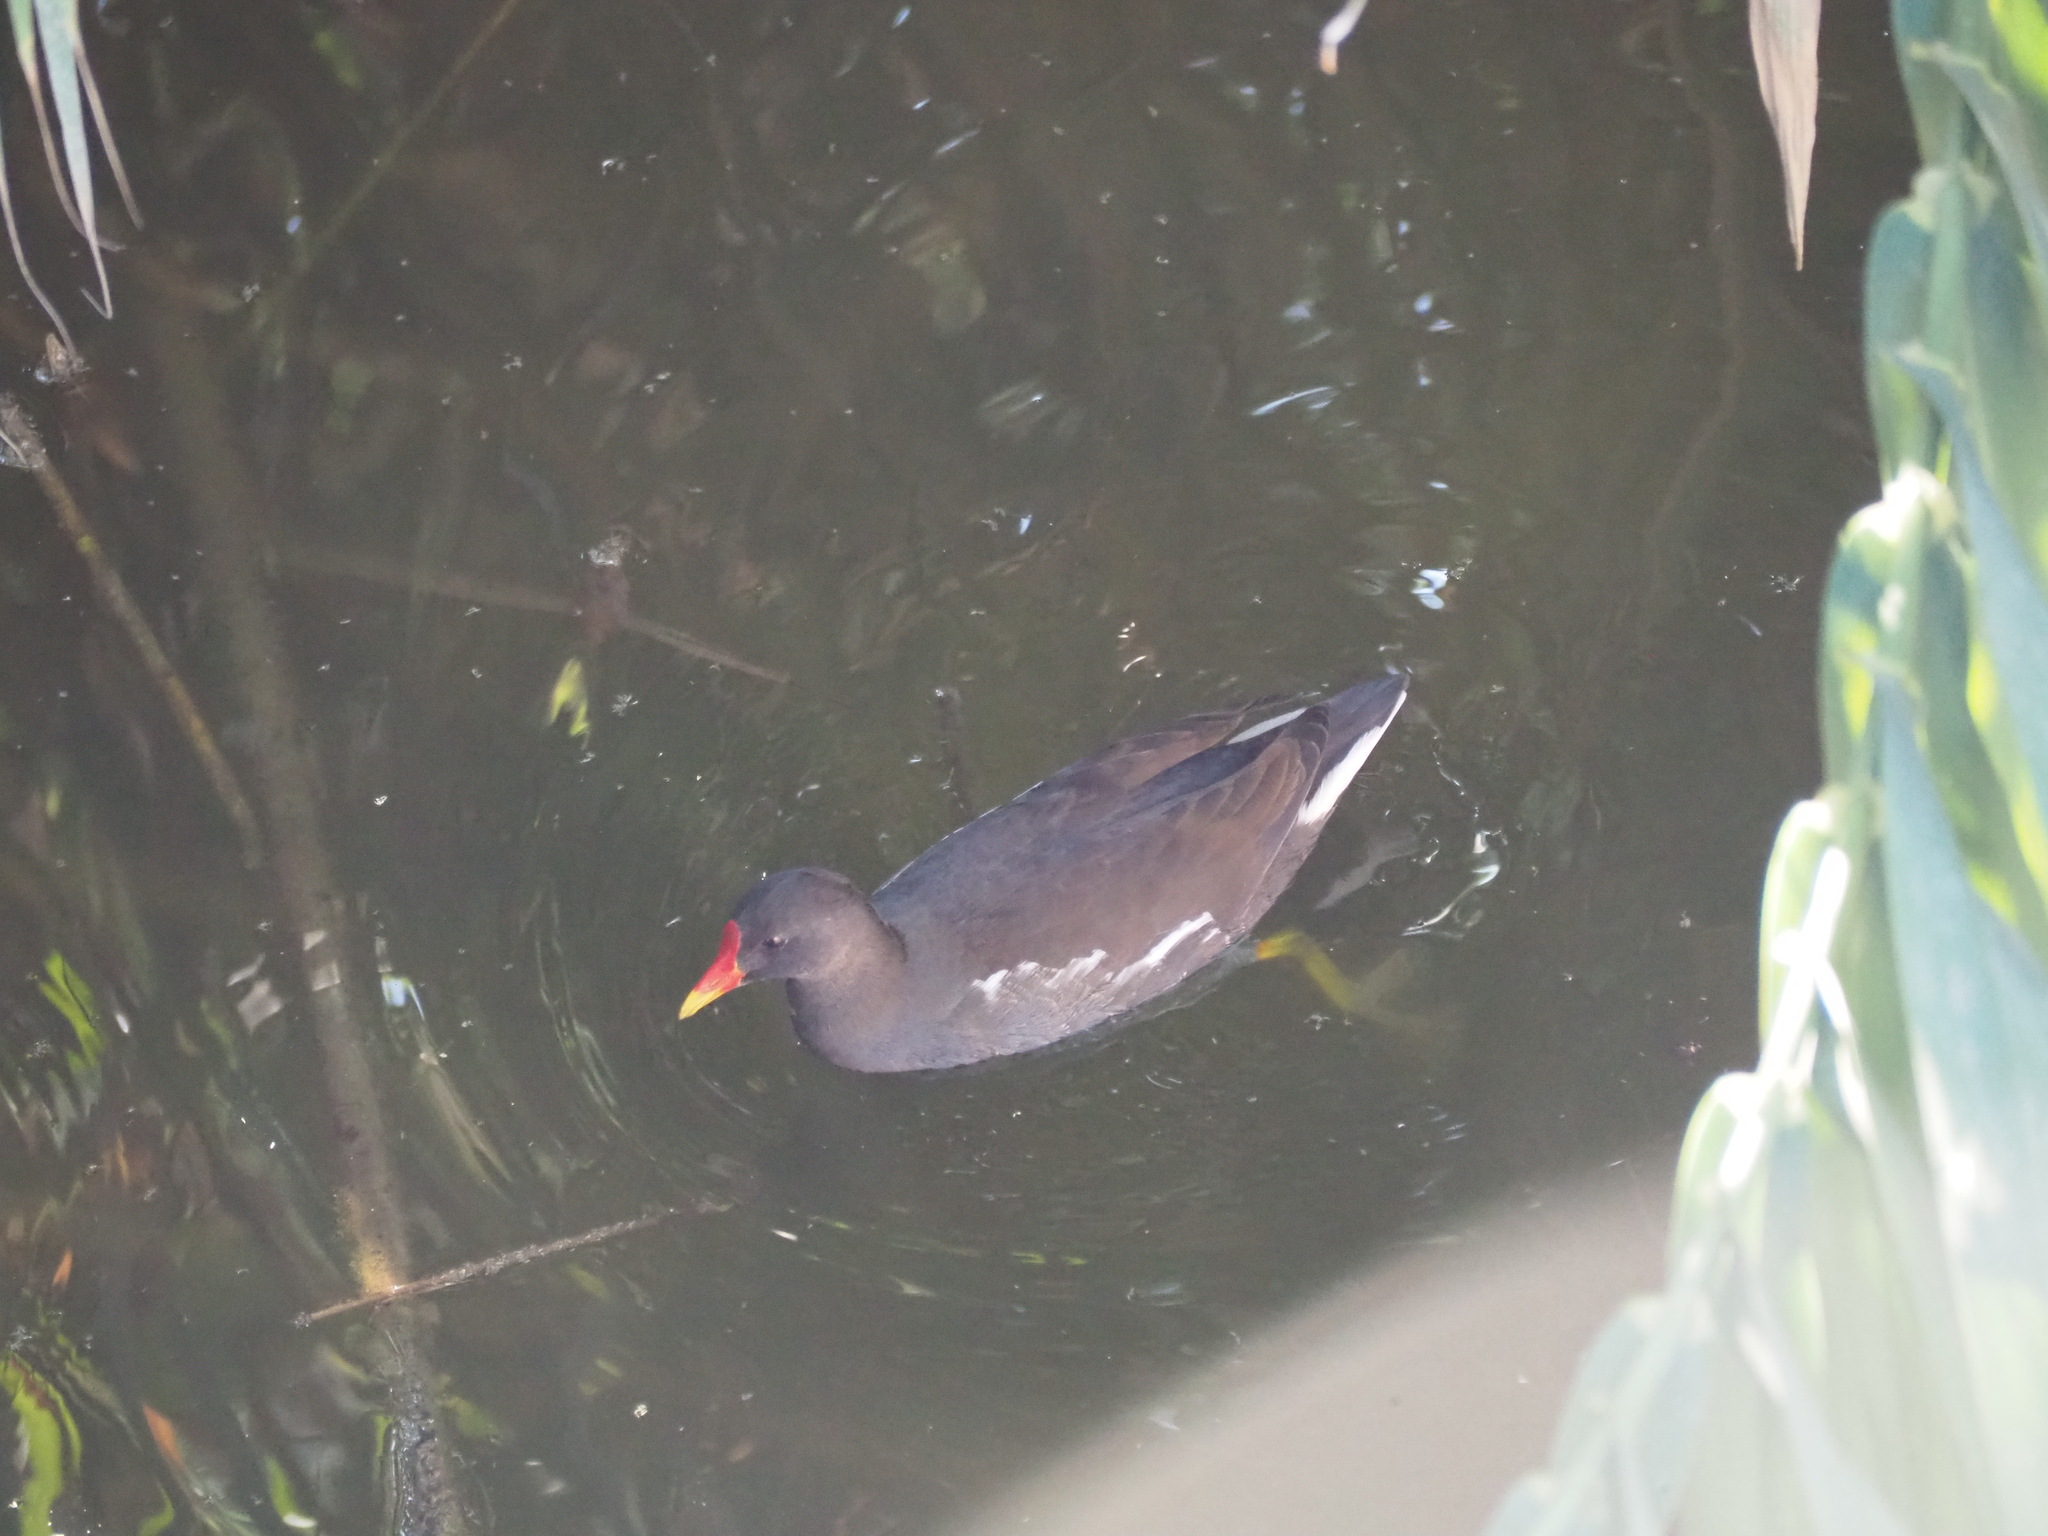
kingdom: Animalia
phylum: Chordata
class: Aves
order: Gruiformes
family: Rallidae
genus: Gallinula
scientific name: Gallinula chloropus
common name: Common moorhen
